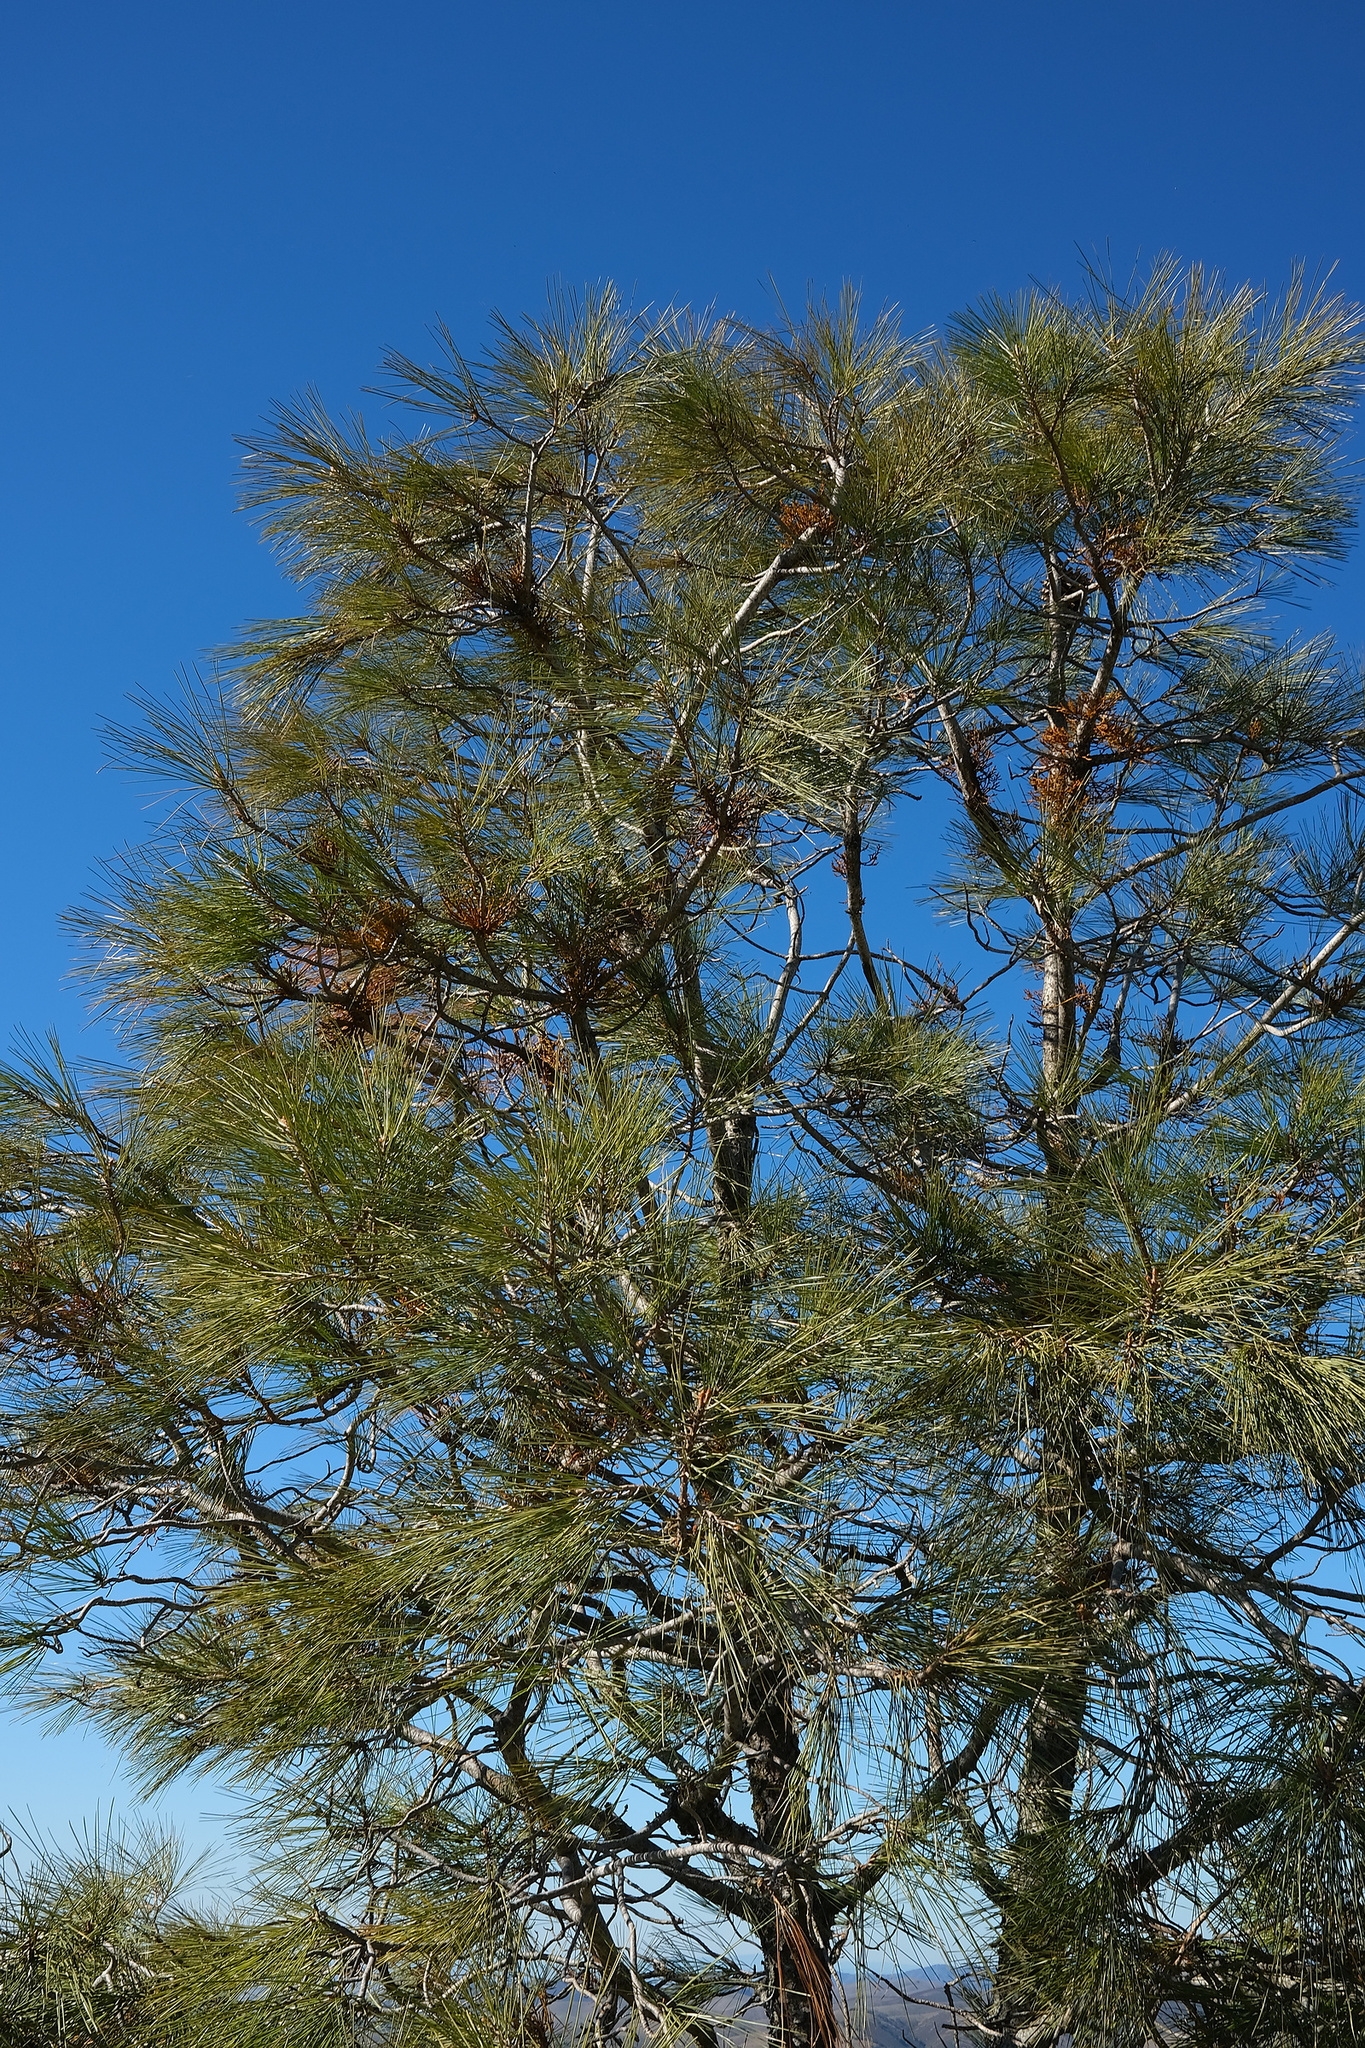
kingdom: Plantae
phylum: Tracheophyta
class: Magnoliopsida
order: Santalales
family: Viscaceae
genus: Arceuthobium
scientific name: Arceuthobium campylopodum
